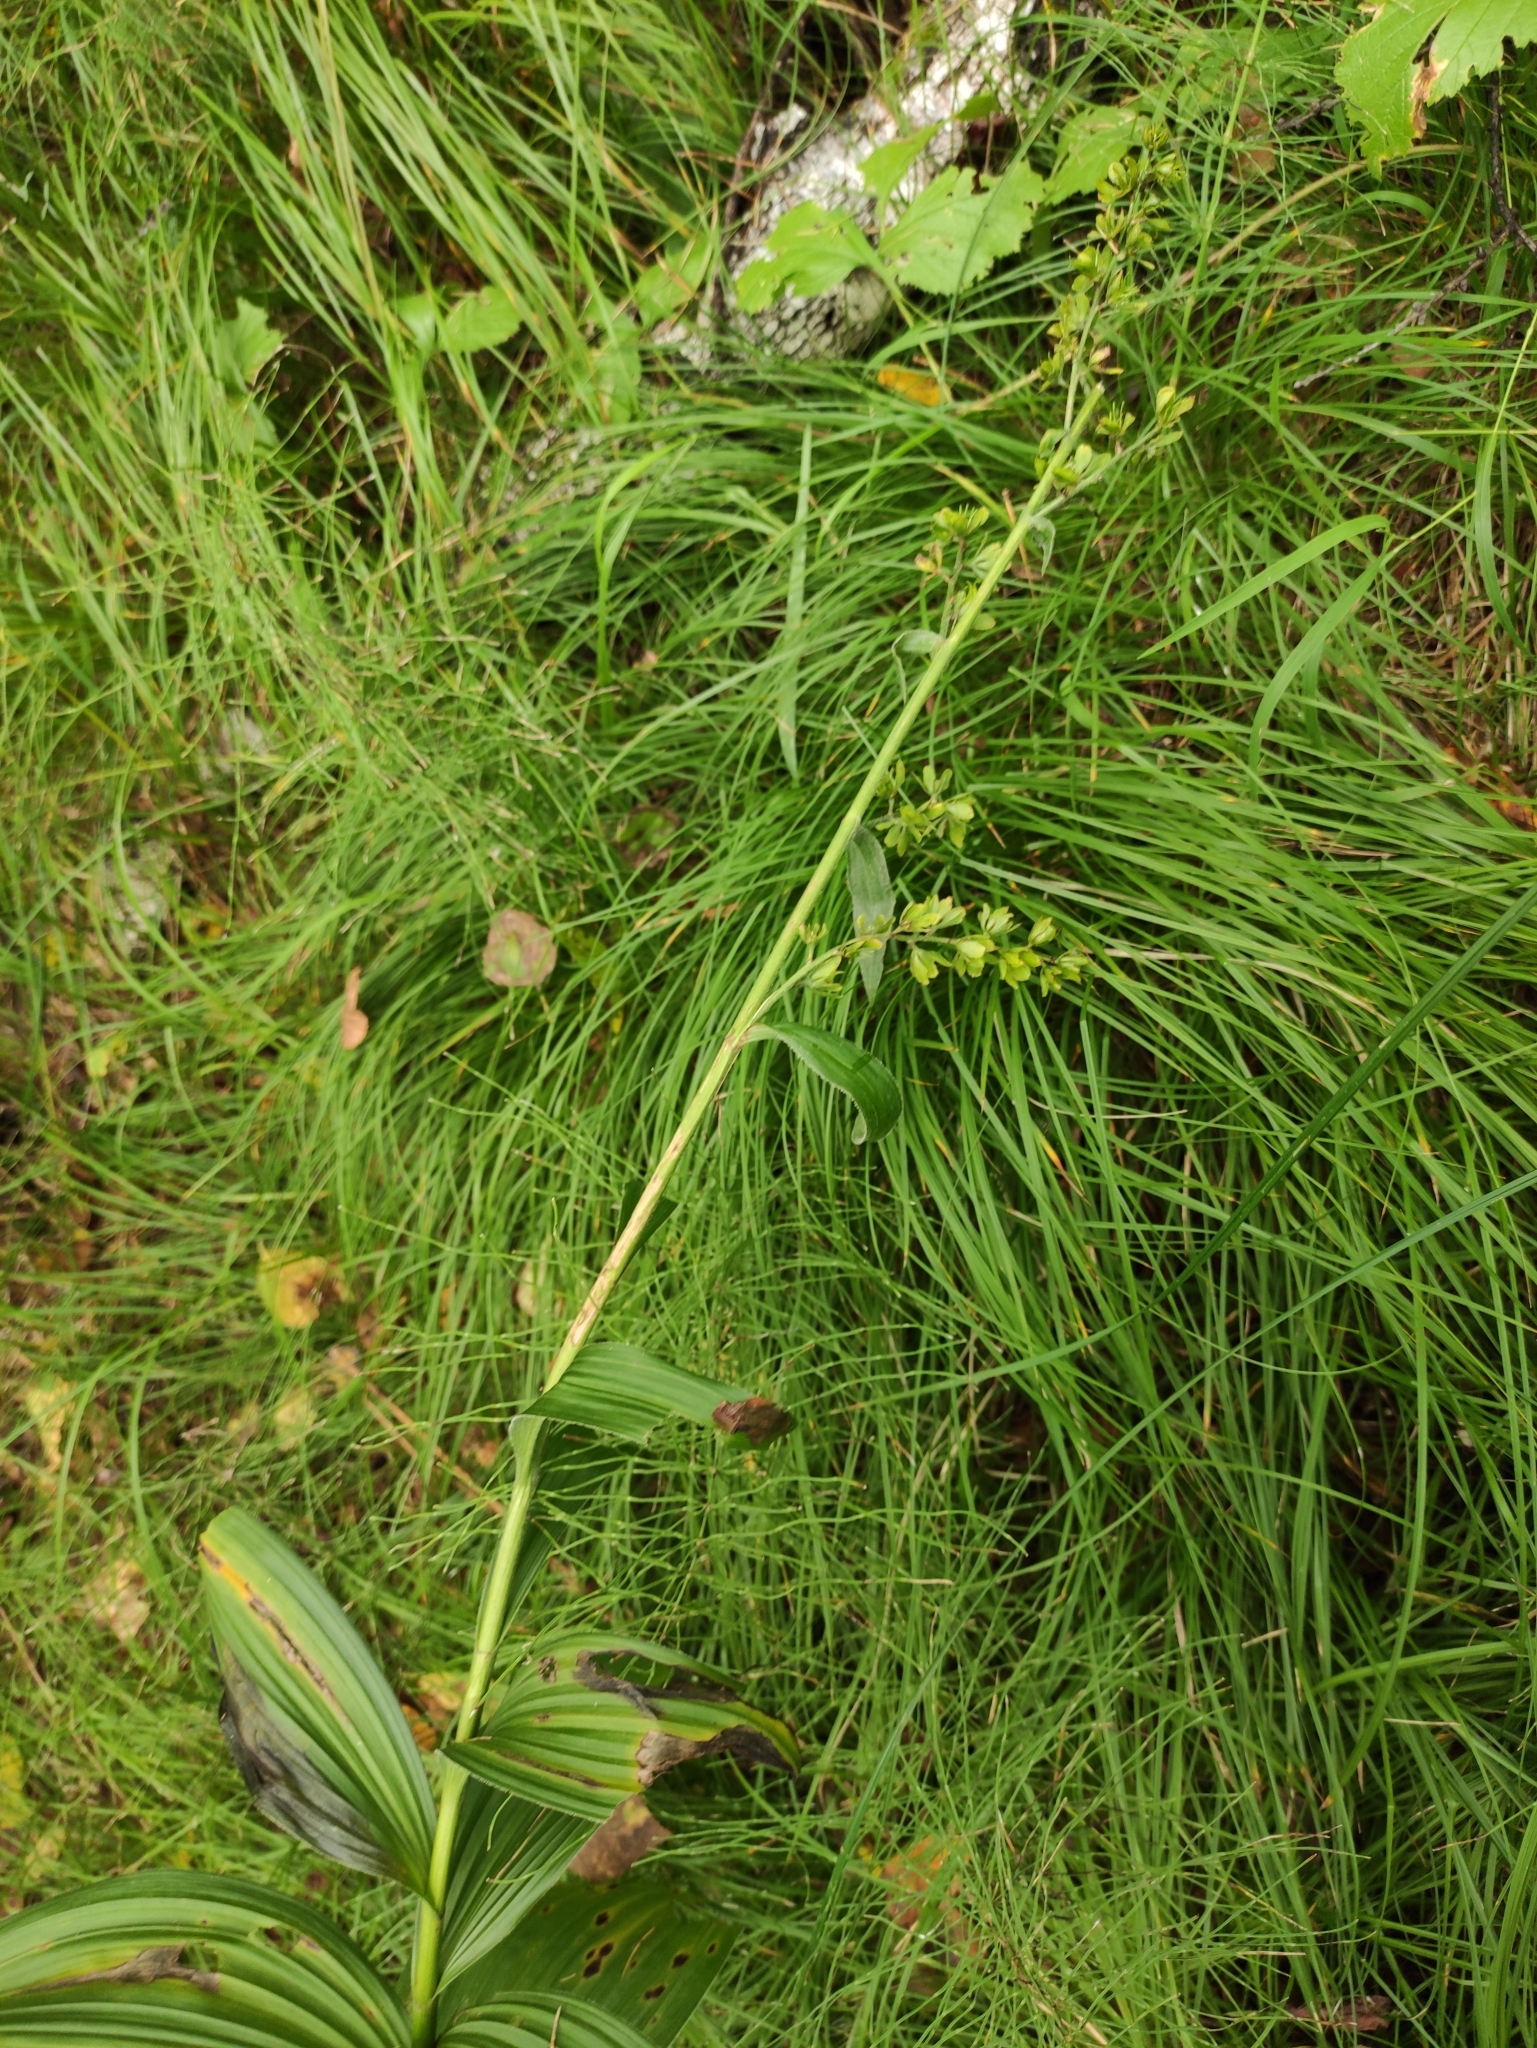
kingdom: Plantae
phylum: Tracheophyta
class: Liliopsida
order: Liliales
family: Melanthiaceae
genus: Veratrum
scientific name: Veratrum lobelianum
